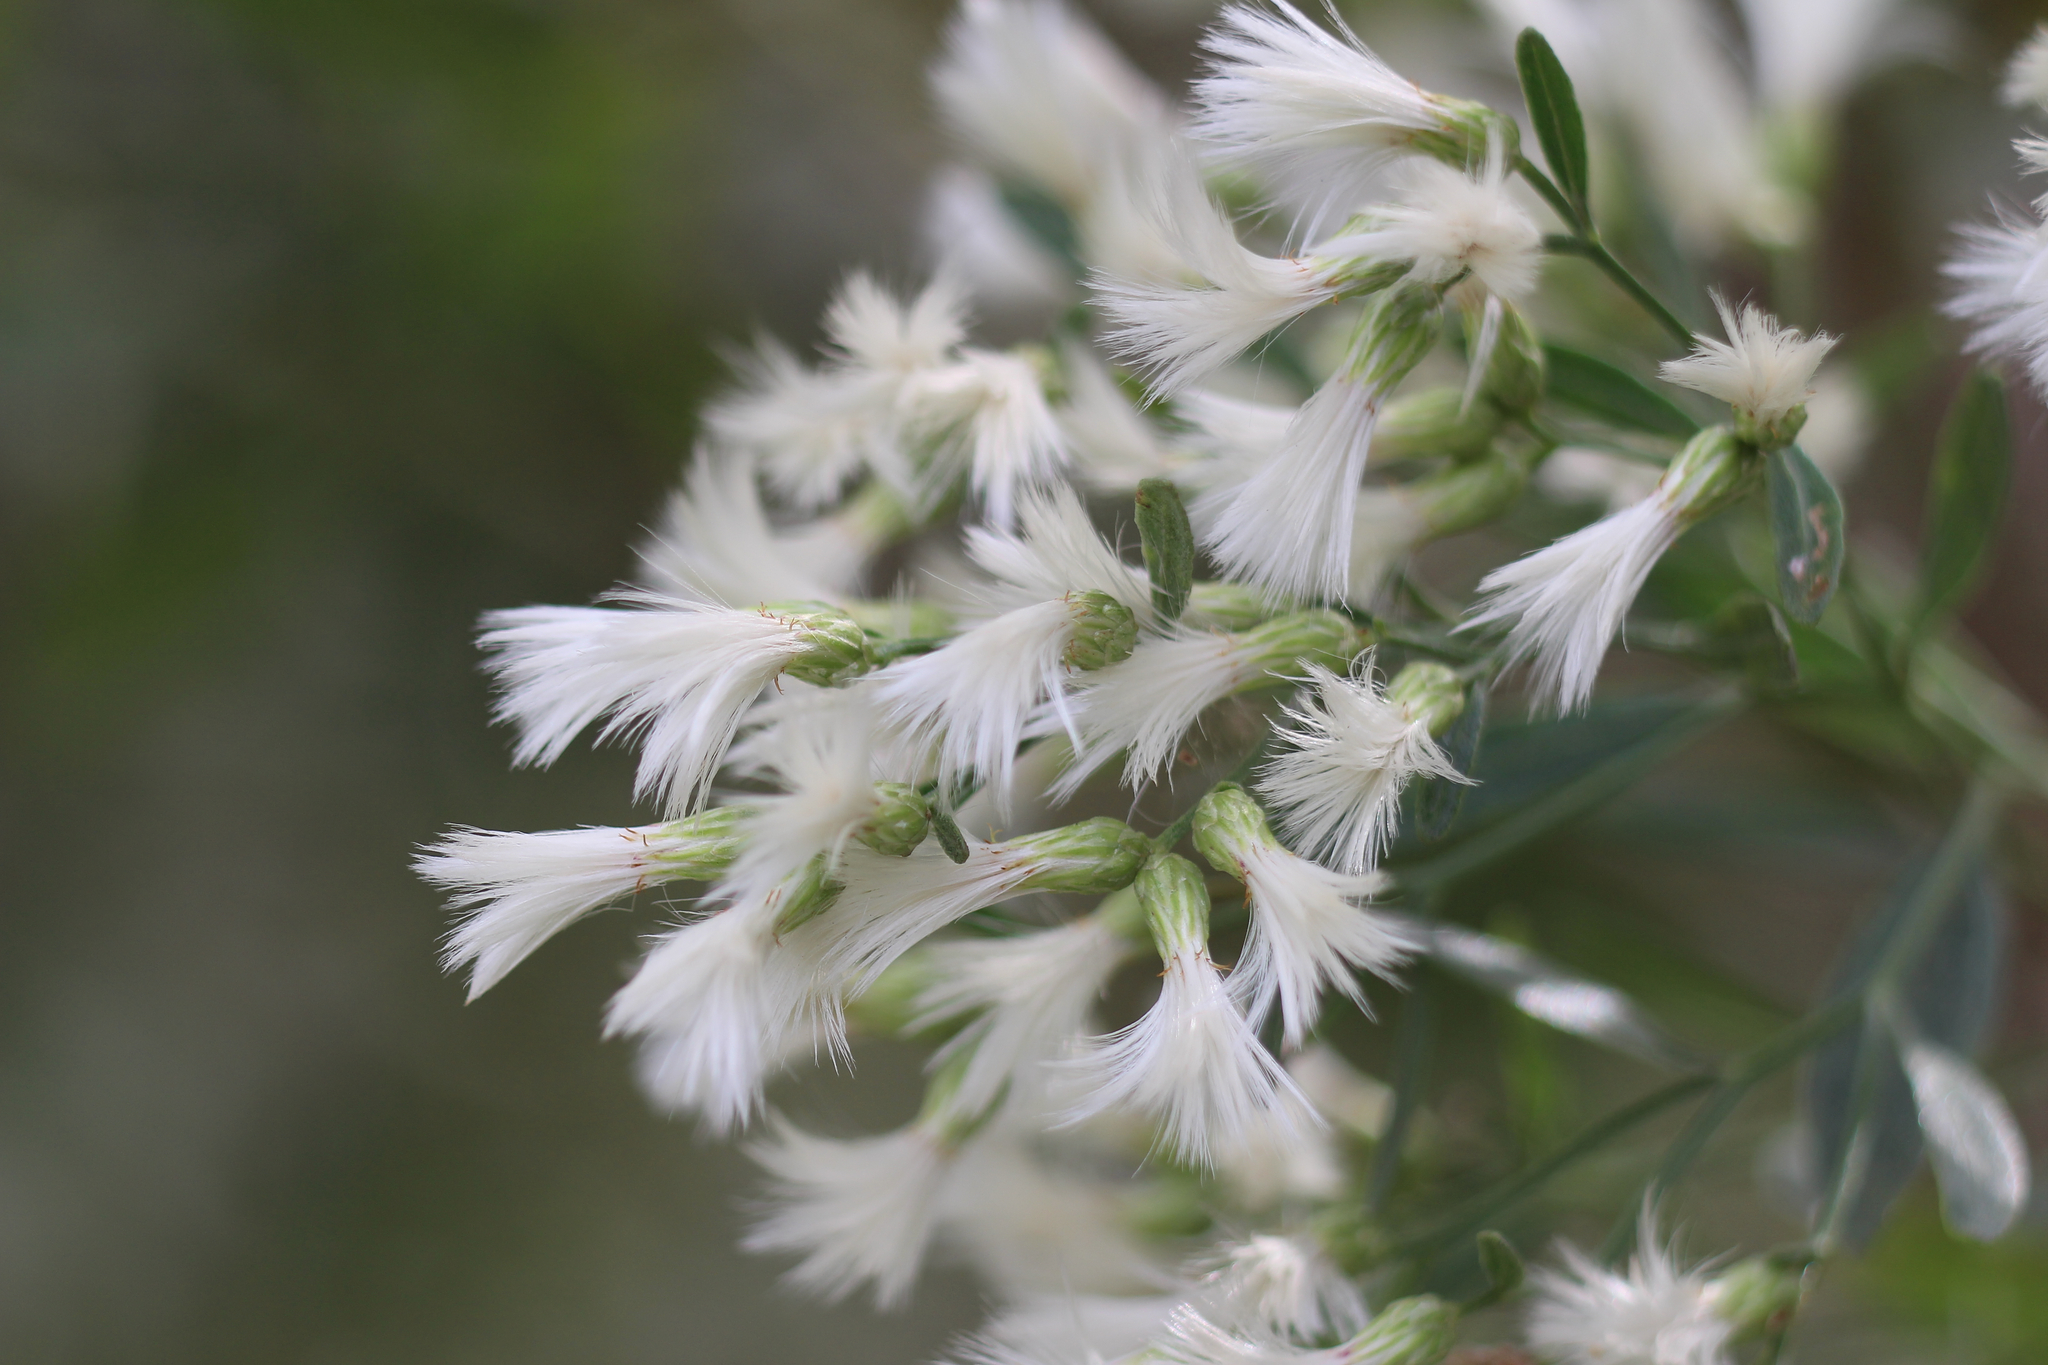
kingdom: Plantae
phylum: Tracheophyta
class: Magnoliopsida
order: Asterales
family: Asteraceae
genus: Baccharis
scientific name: Baccharis halimifolia
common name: Eastern baccharis
